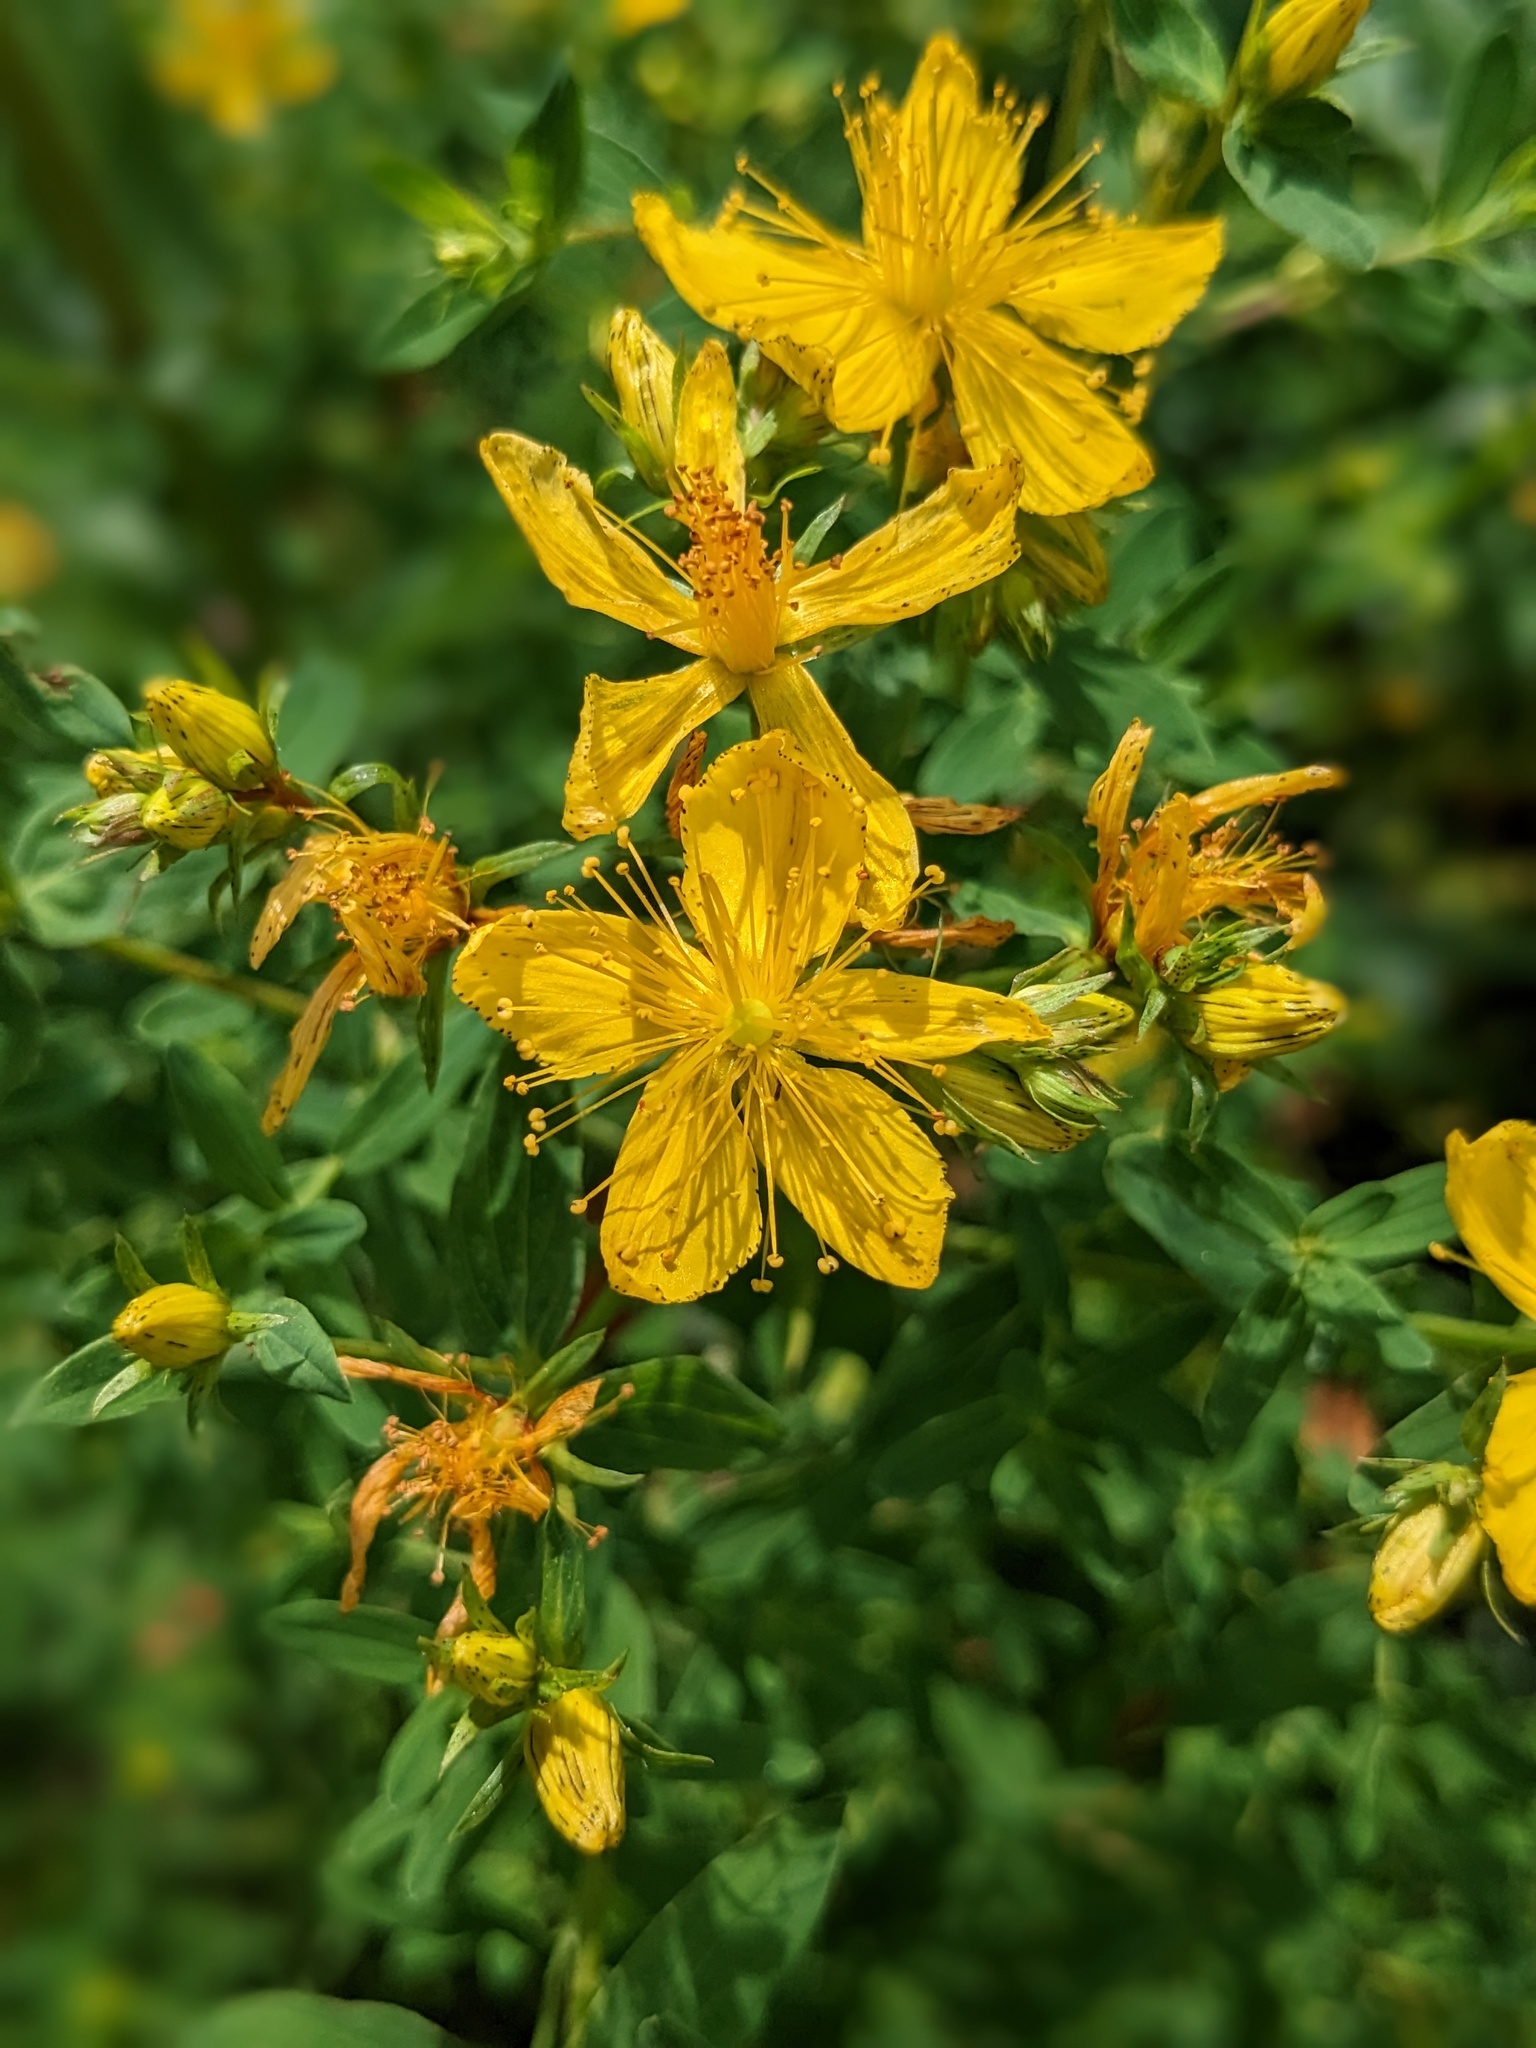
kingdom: Plantae
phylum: Tracheophyta
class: Magnoliopsida
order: Malpighiales
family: Hypericaceae
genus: Hypericum
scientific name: Hypericum perforatum
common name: Common st. johnswort
